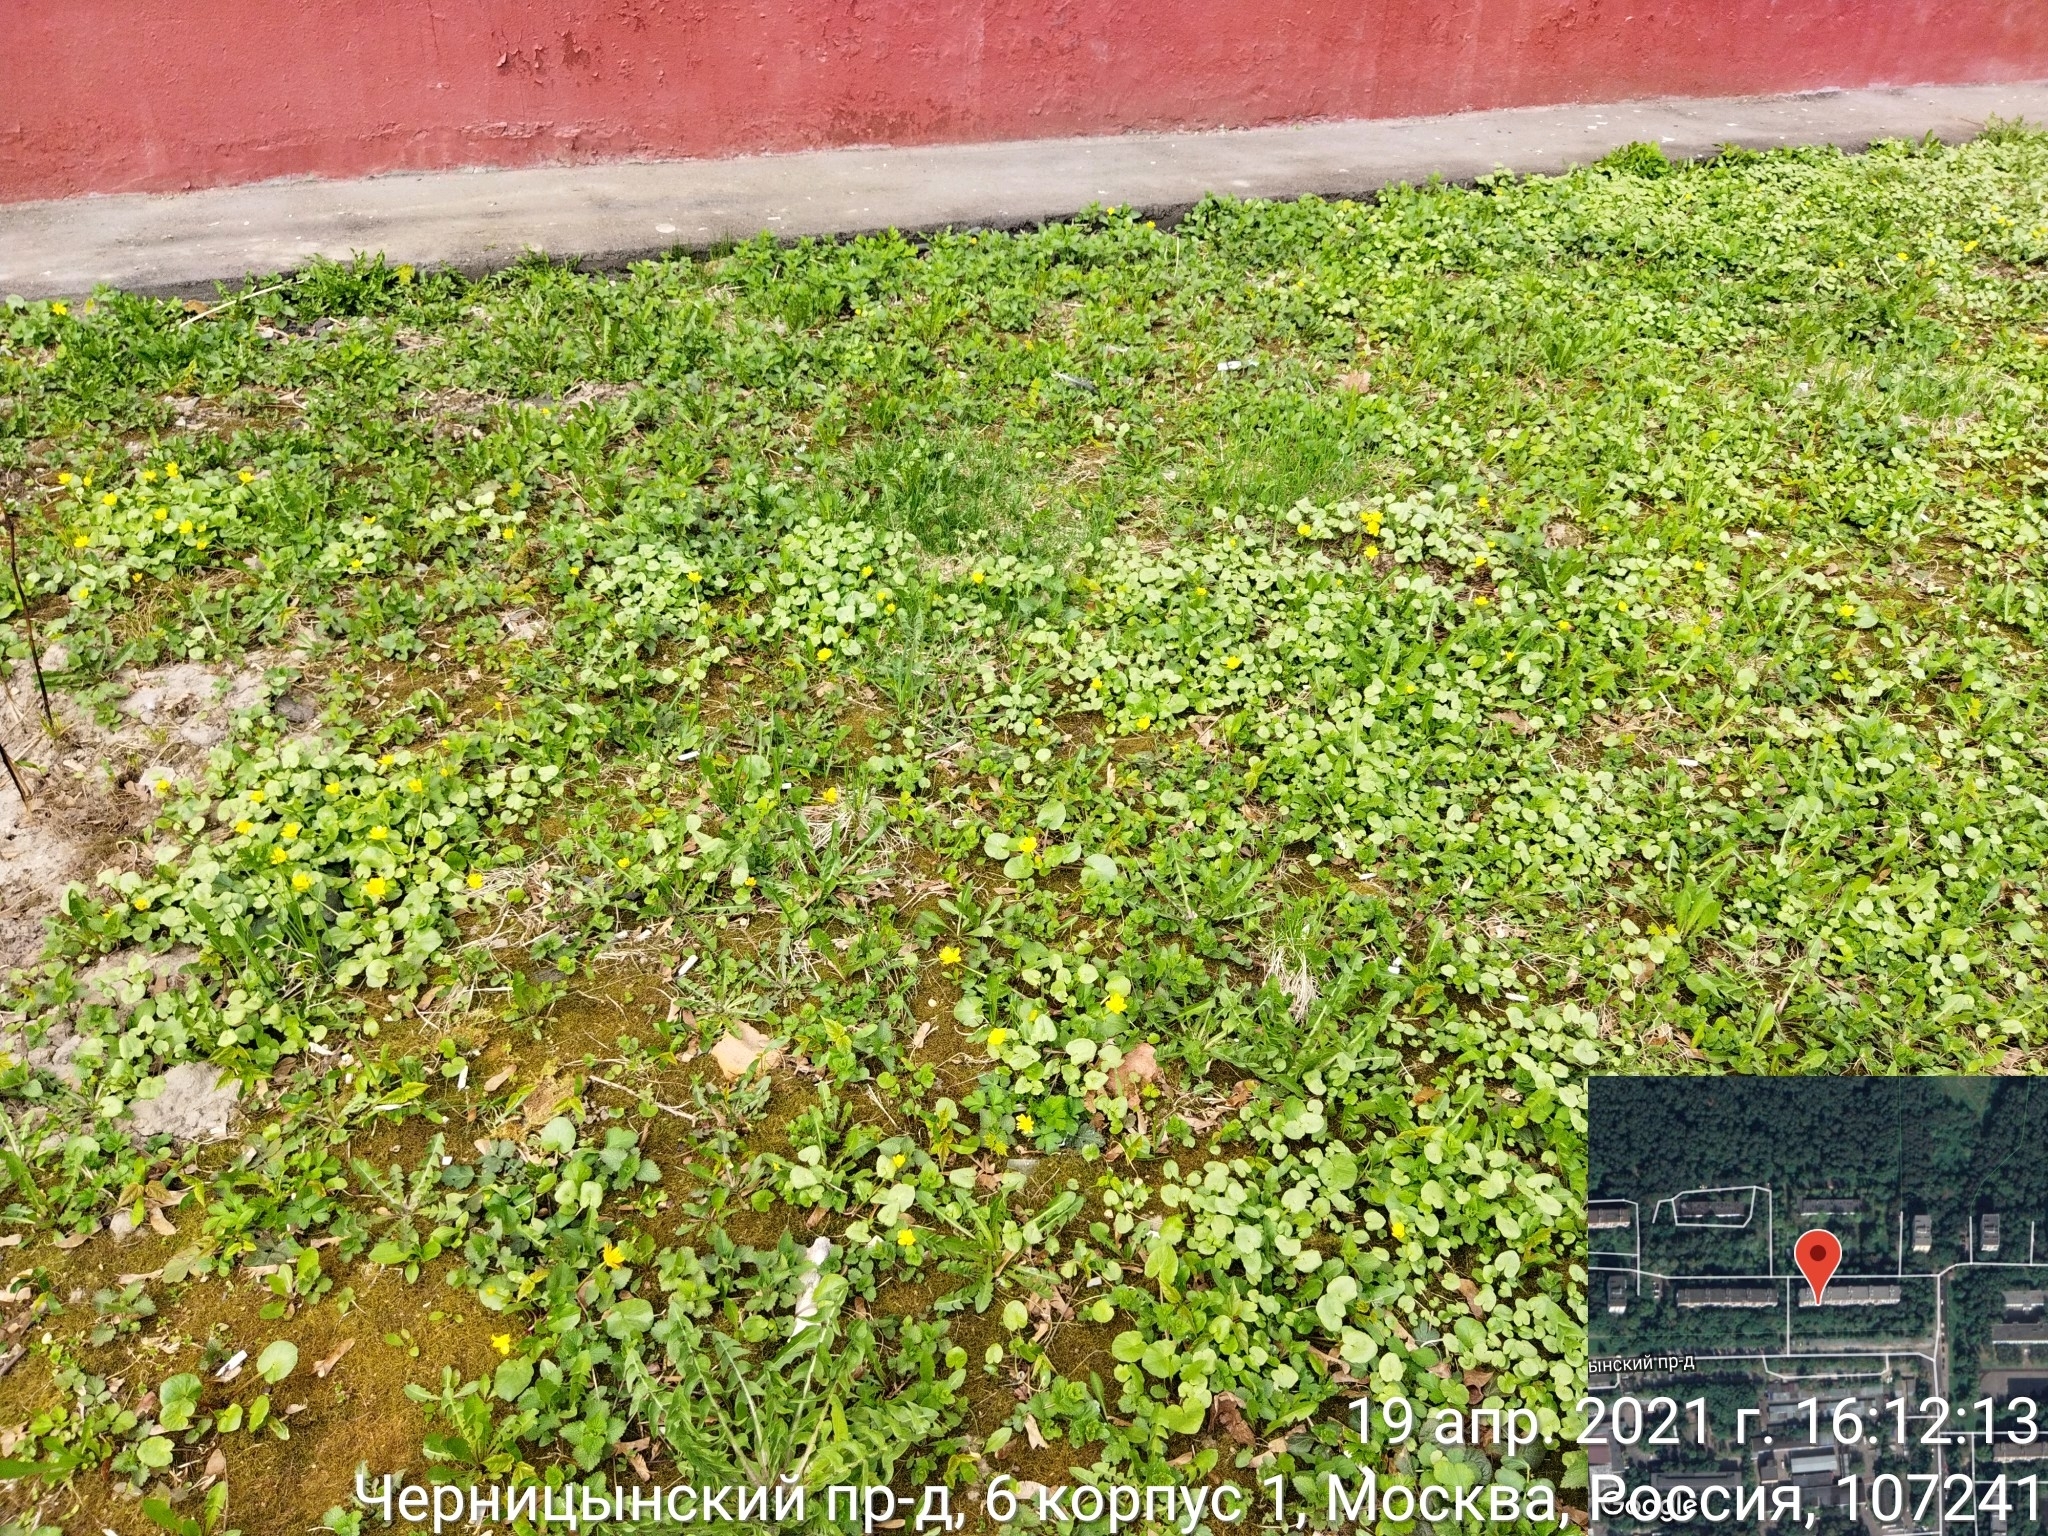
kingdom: Plantae
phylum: Tracheophyta
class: Magnoliopsida
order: Ranunculales
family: Ranunculaceae
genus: Ficaria
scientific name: Ficaria verna
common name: Lesser celandine
